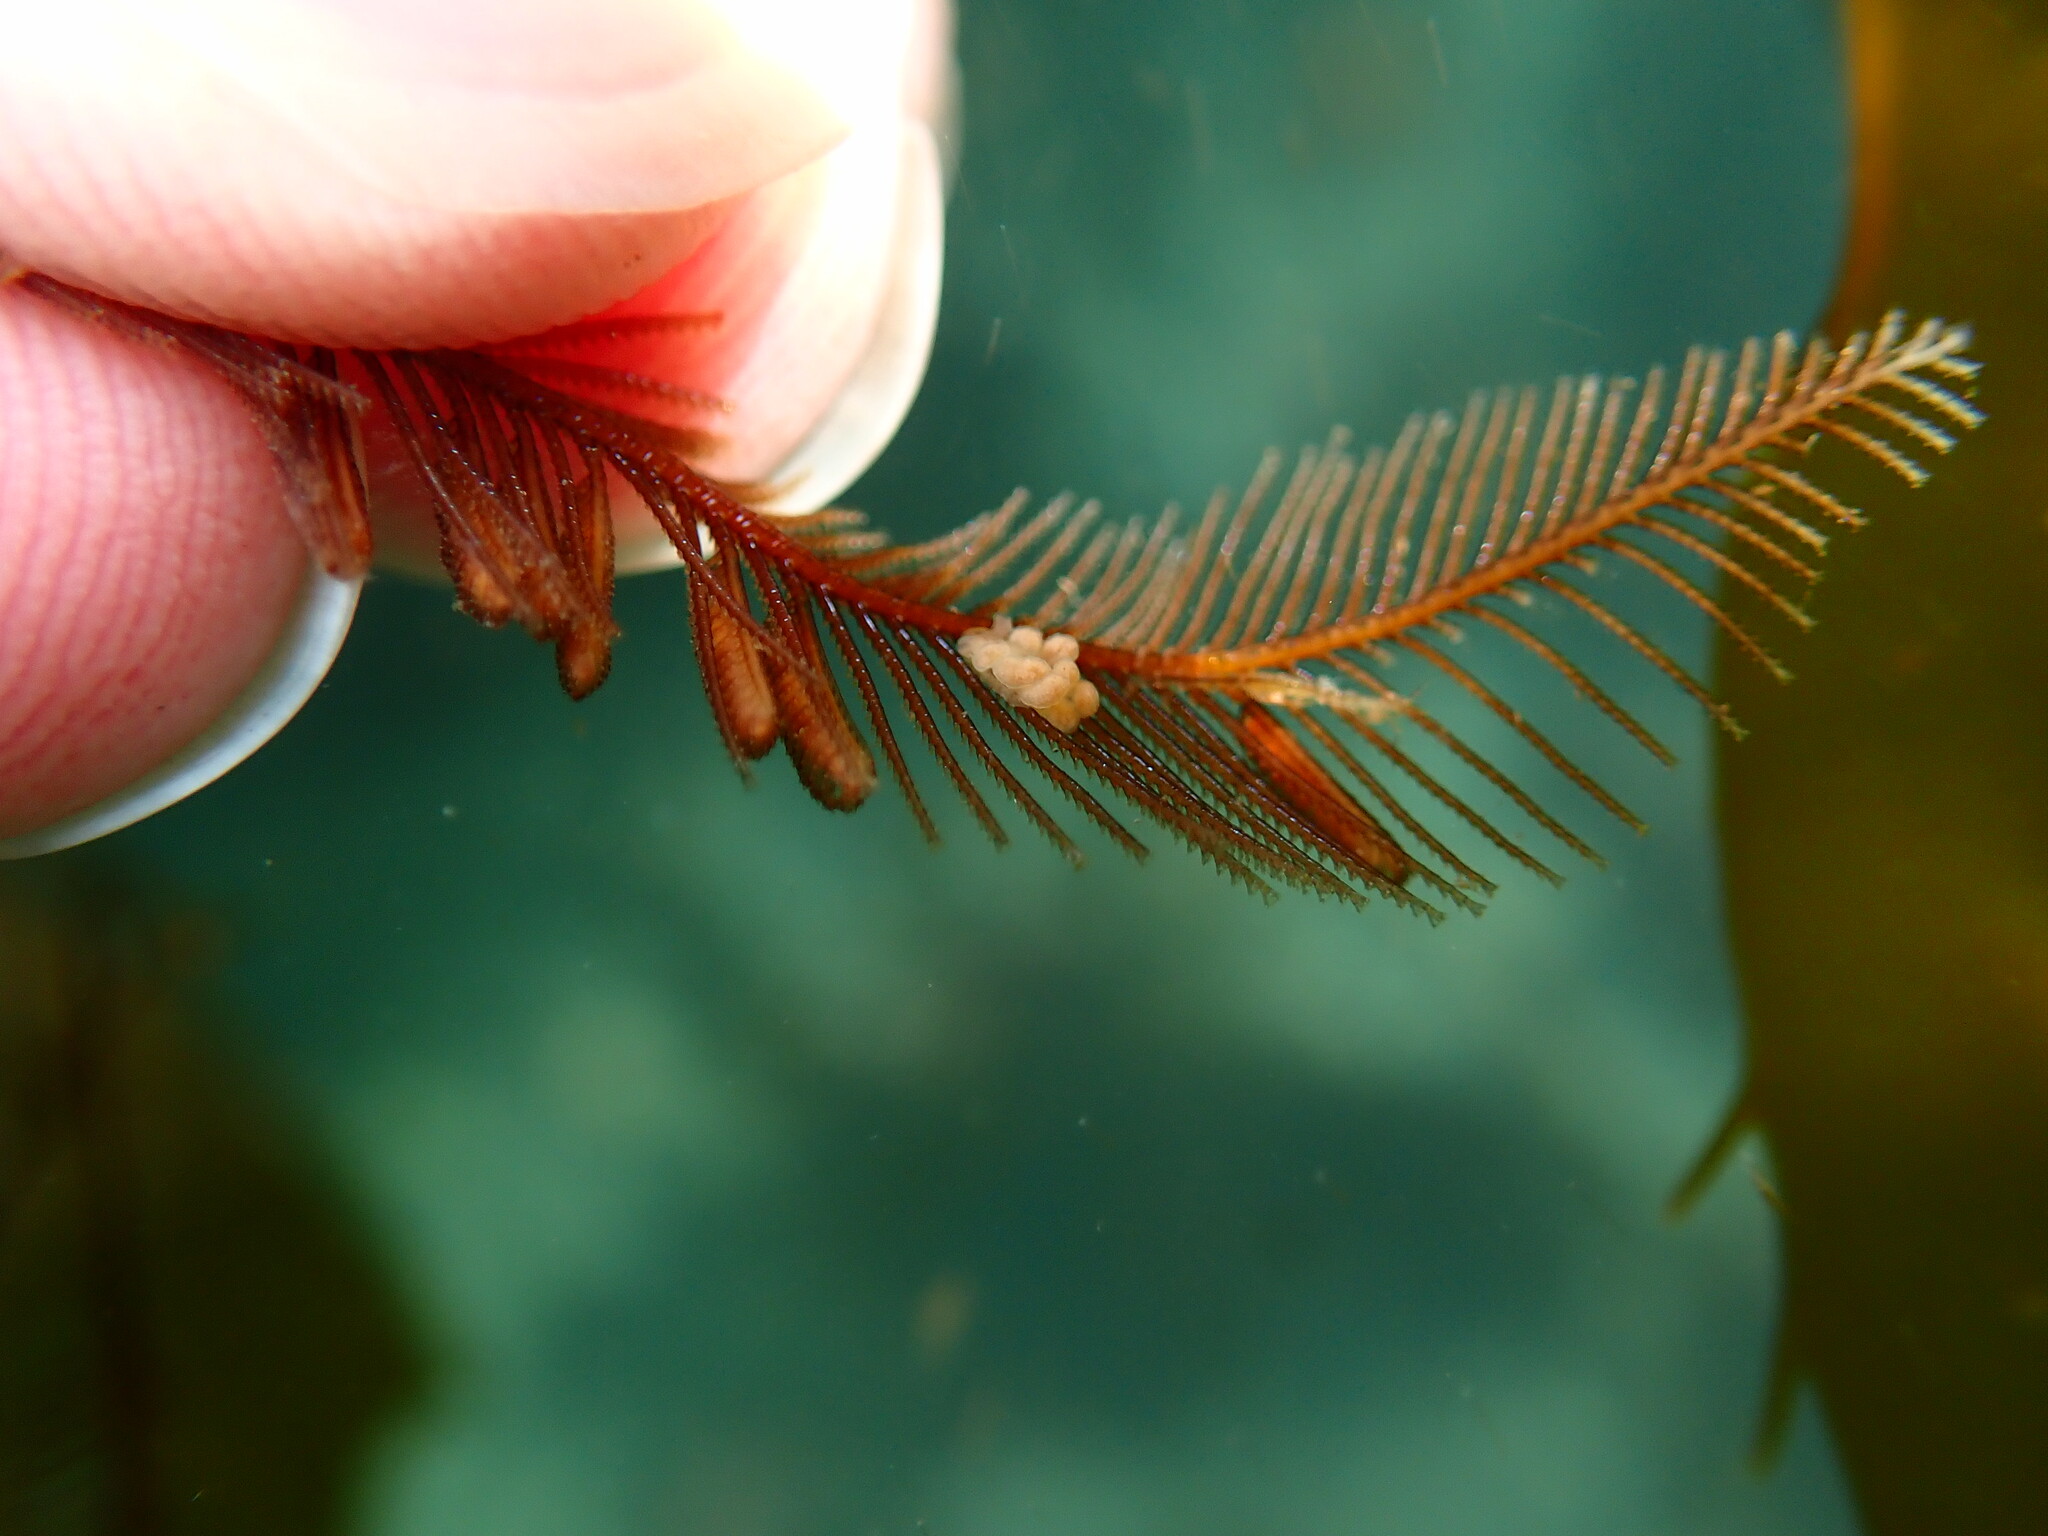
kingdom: Animalia
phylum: Mollusca
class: Gastropoda
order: Nudibranchia
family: Dotidae
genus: Doto
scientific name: Doto columbiana
